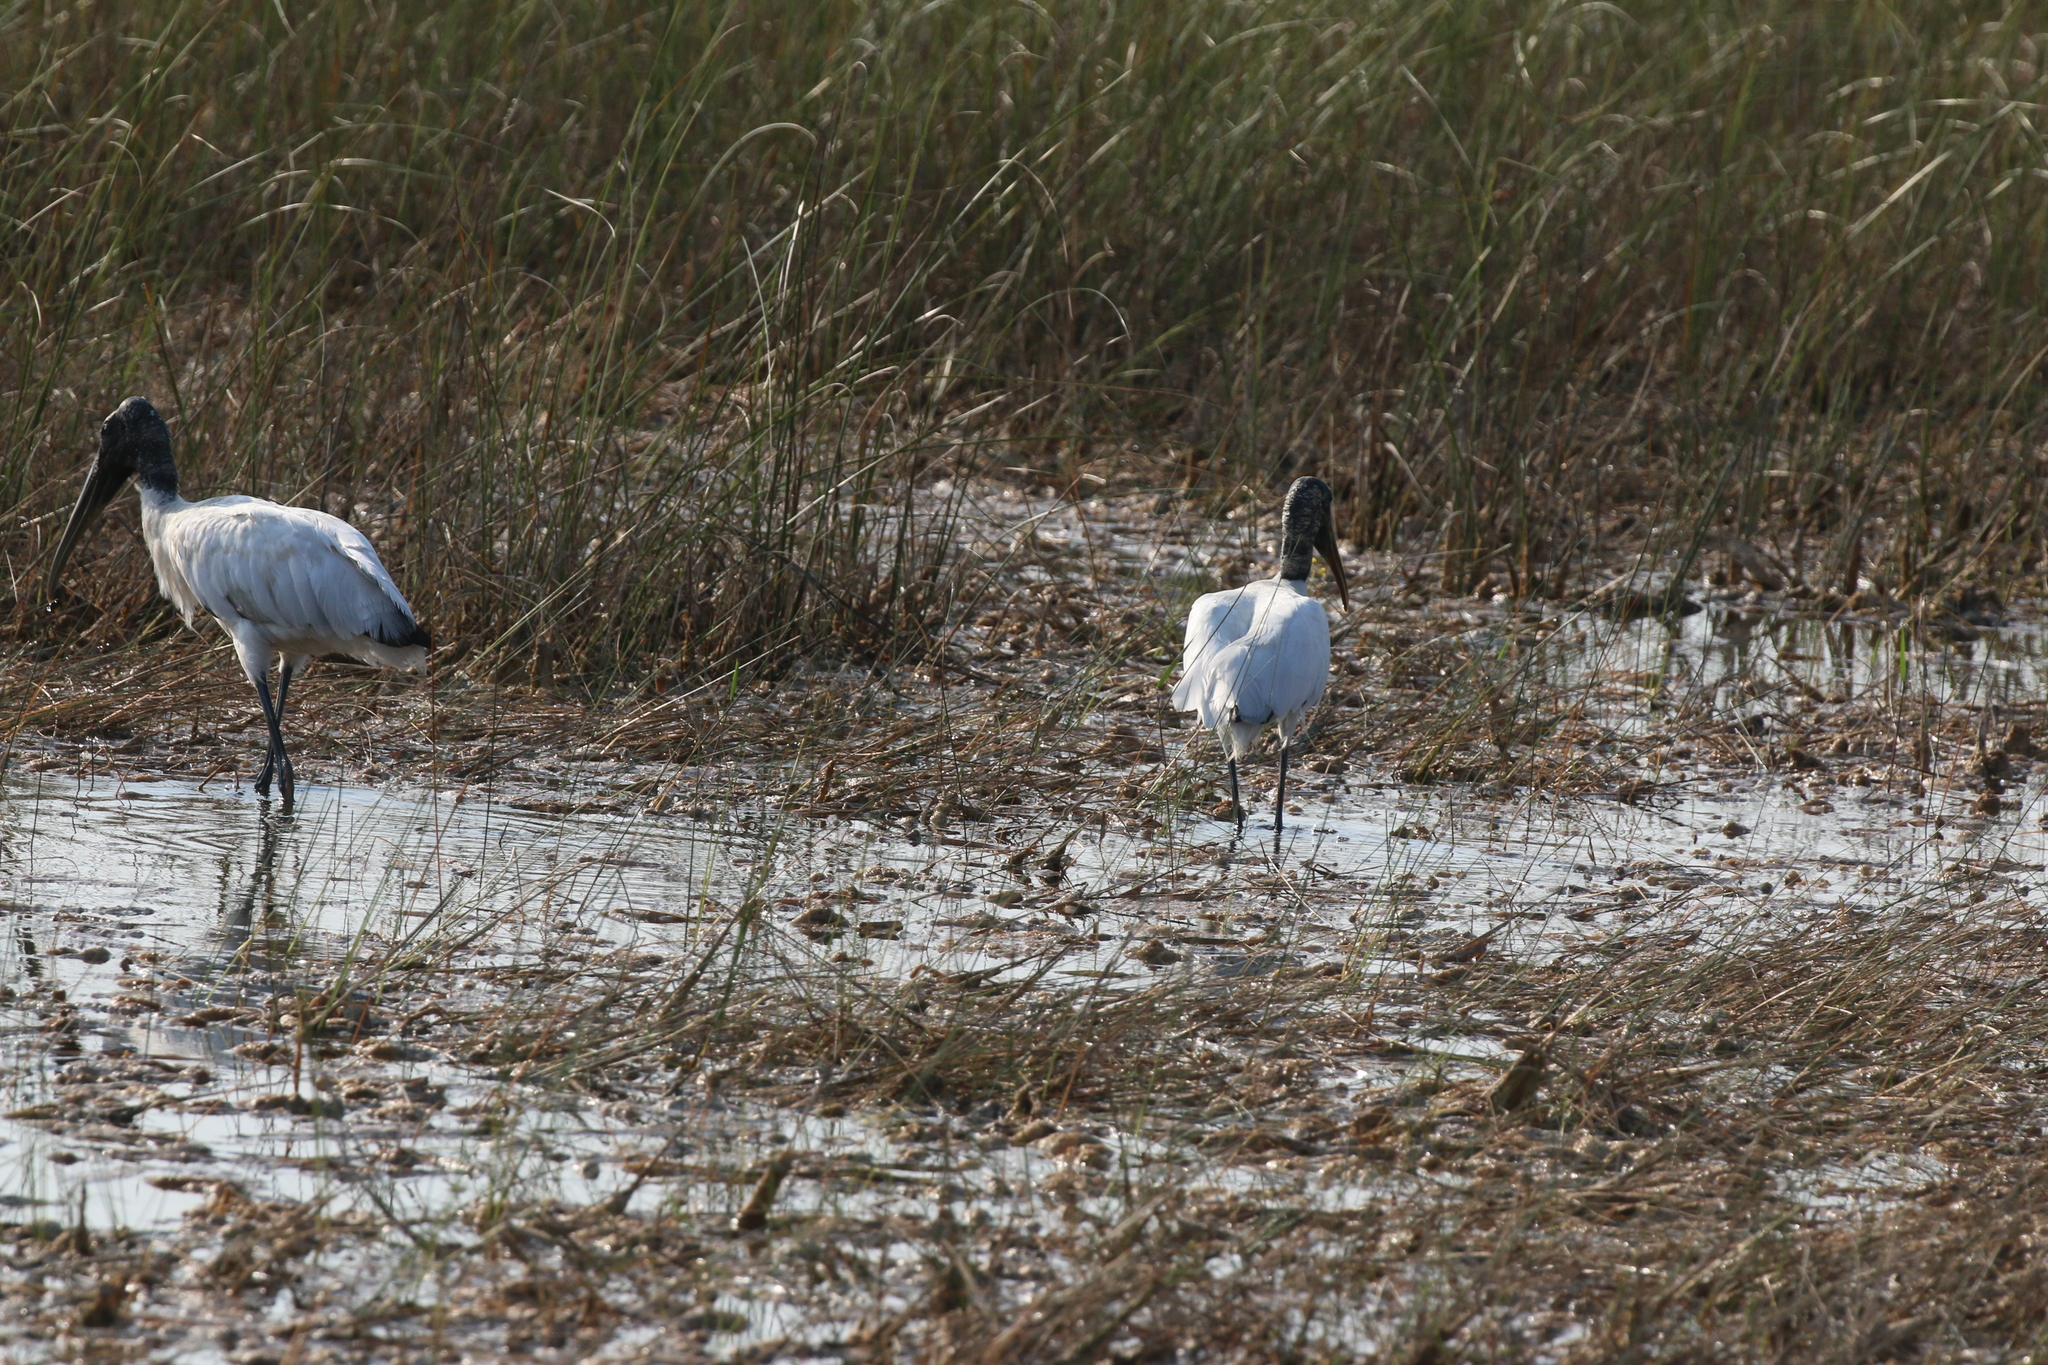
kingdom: Animalia
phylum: Chordata
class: Aves
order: Ciconiiformes
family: Ciconiidae
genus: Mycteria
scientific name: Mycteria americana
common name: Wood stork
